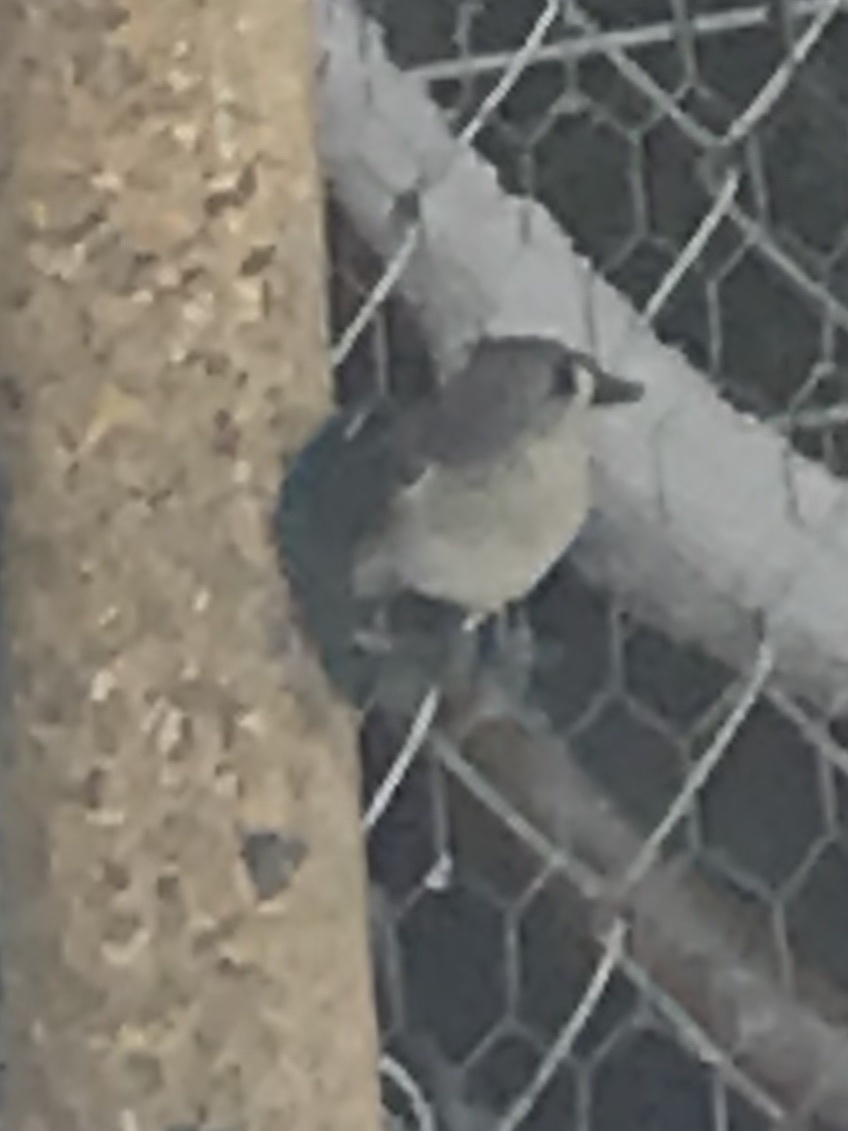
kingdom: Animalia
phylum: Chordata
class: Aves
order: Passeriformes
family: Paridae
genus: Baeolophus
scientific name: Baeolophus bicolor
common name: Tufted titmouse
